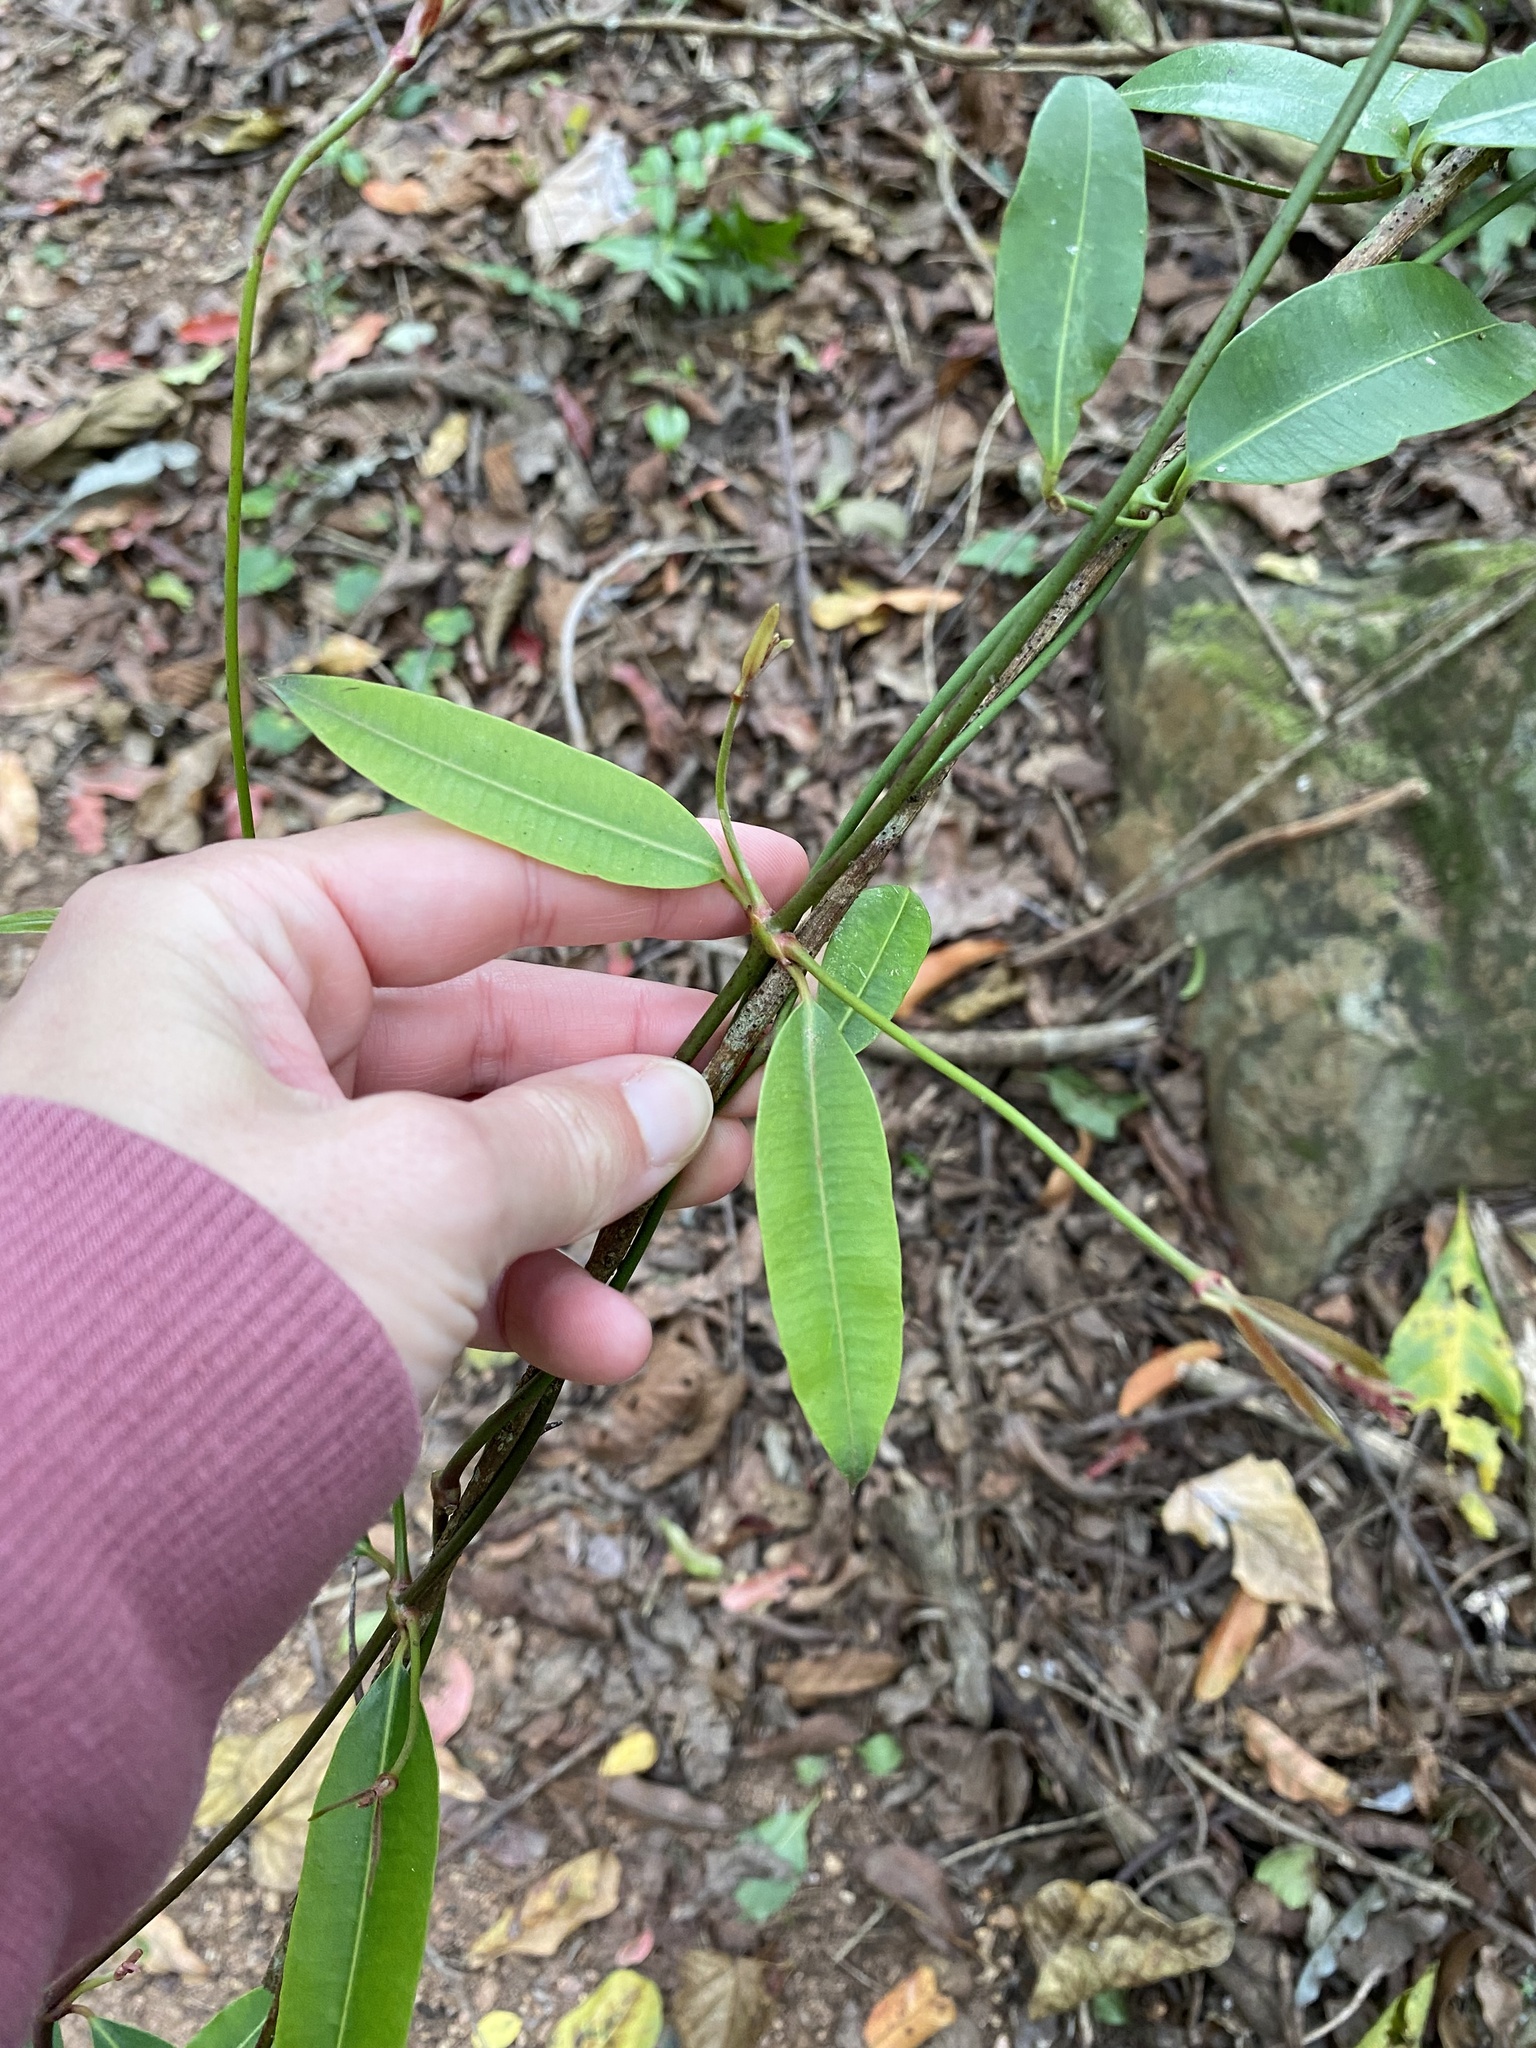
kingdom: Plantae
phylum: Tracheophyta
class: Magnoliopsida
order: Gentianales
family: Apocynaceae
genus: Secamone
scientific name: Secamone alpini
